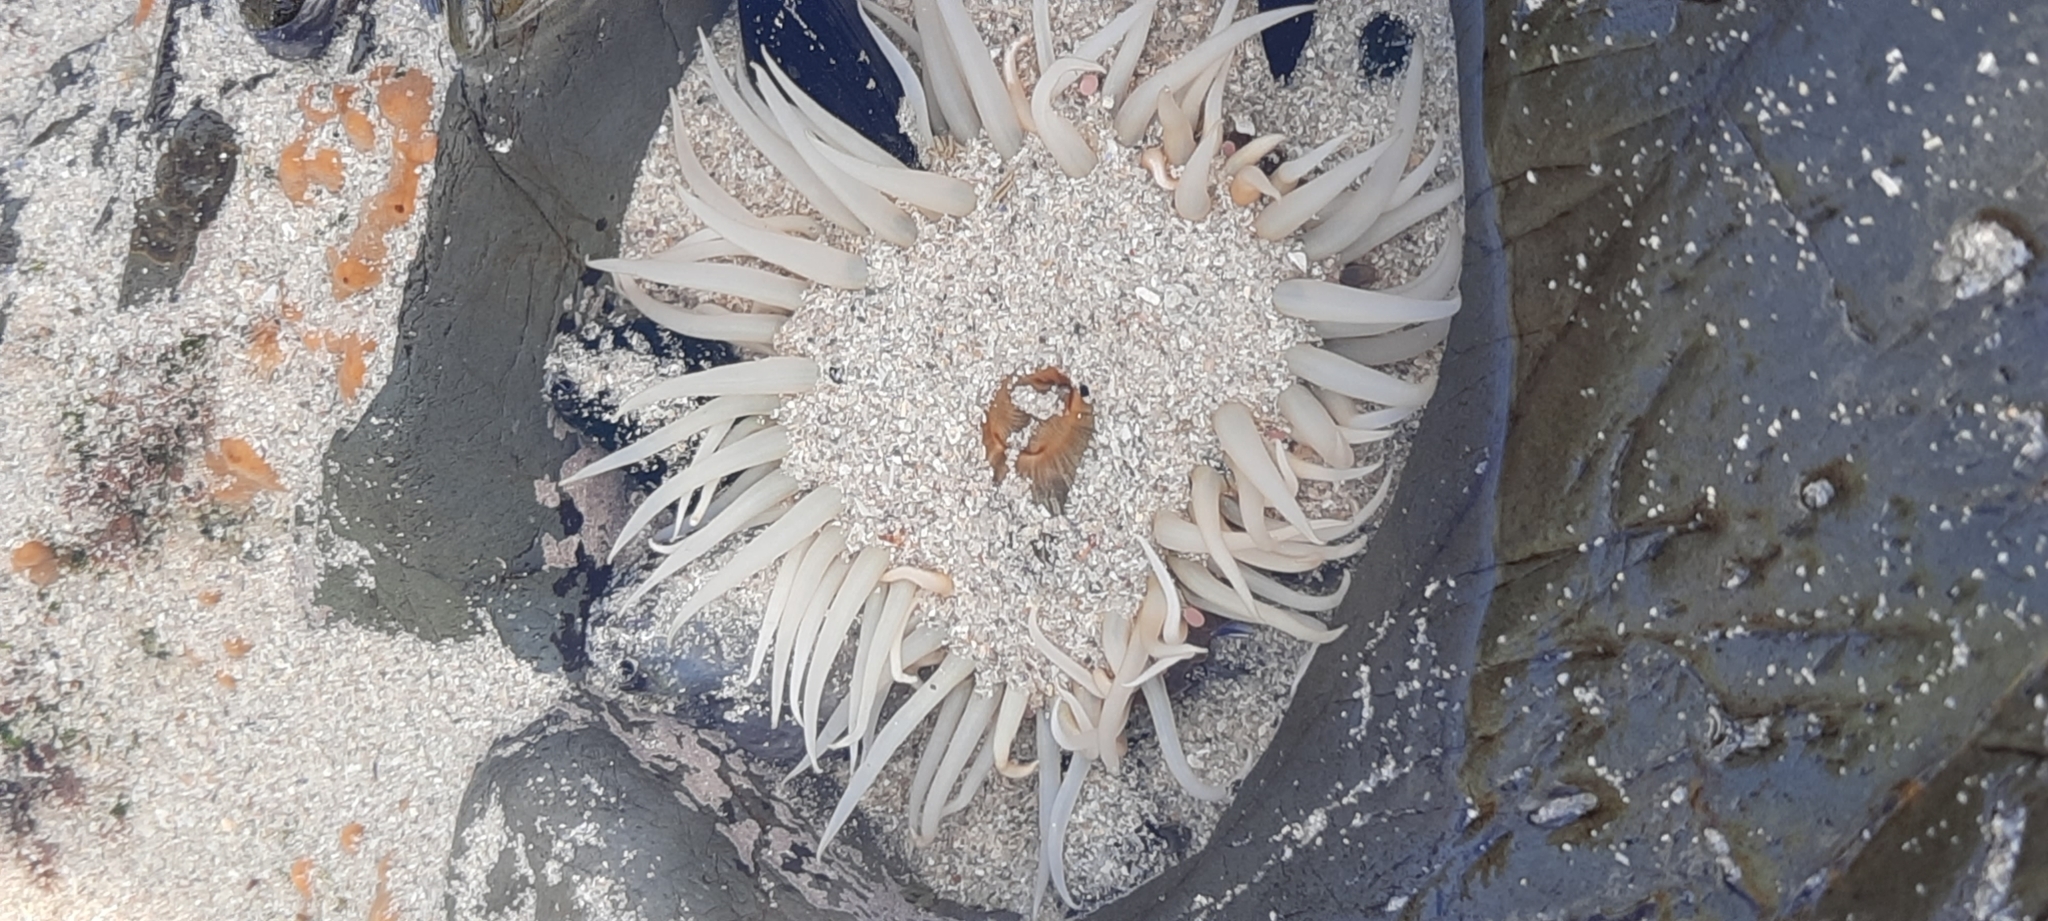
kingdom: Animalia
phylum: Cnidaria
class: Anthozoa
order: Actiniaria
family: Actiniidae
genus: Anthopleura
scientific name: Anthopleura michaelseni
